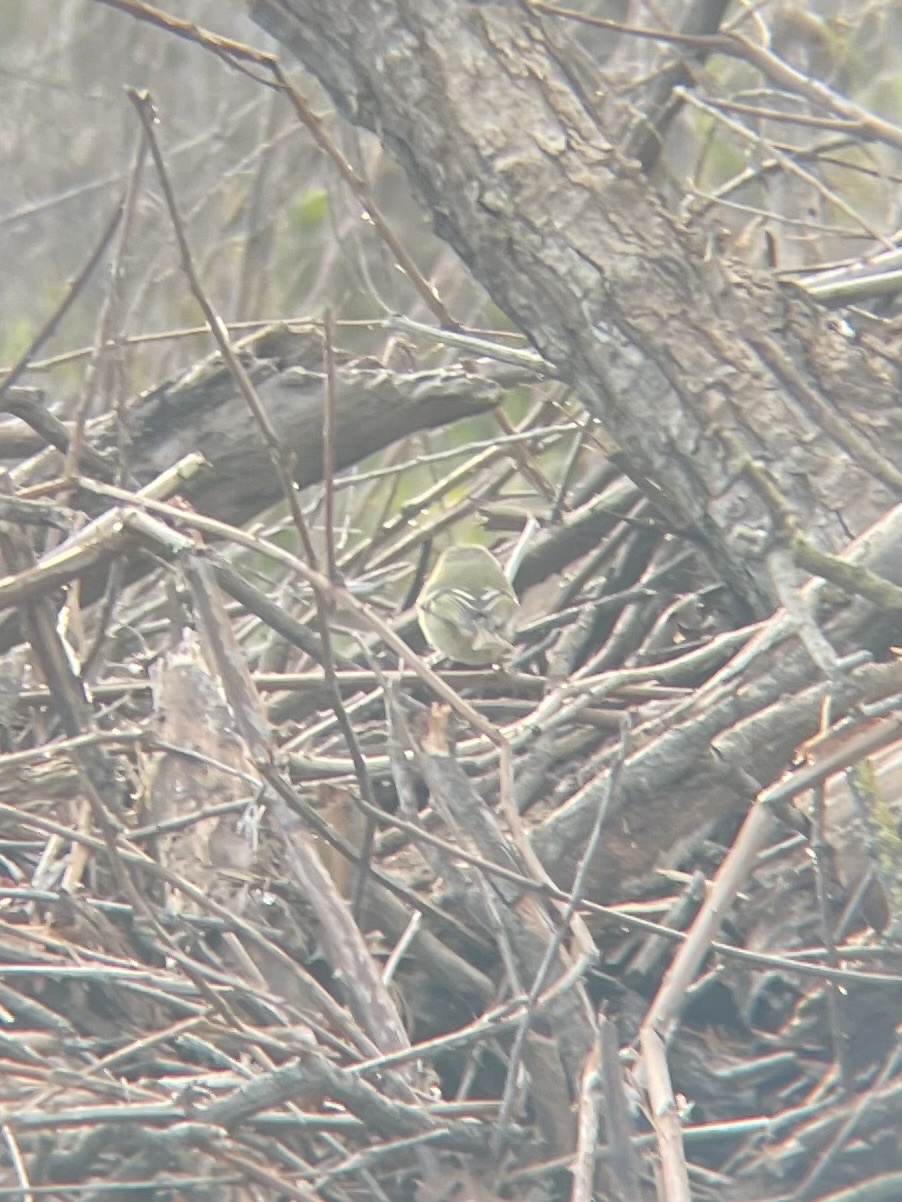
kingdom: Animalia
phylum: Chordata
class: Aves
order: Passeriformes
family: Regulidae
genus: Regulus
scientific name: Regulus calendula
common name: Ruby-crowned kinglet
